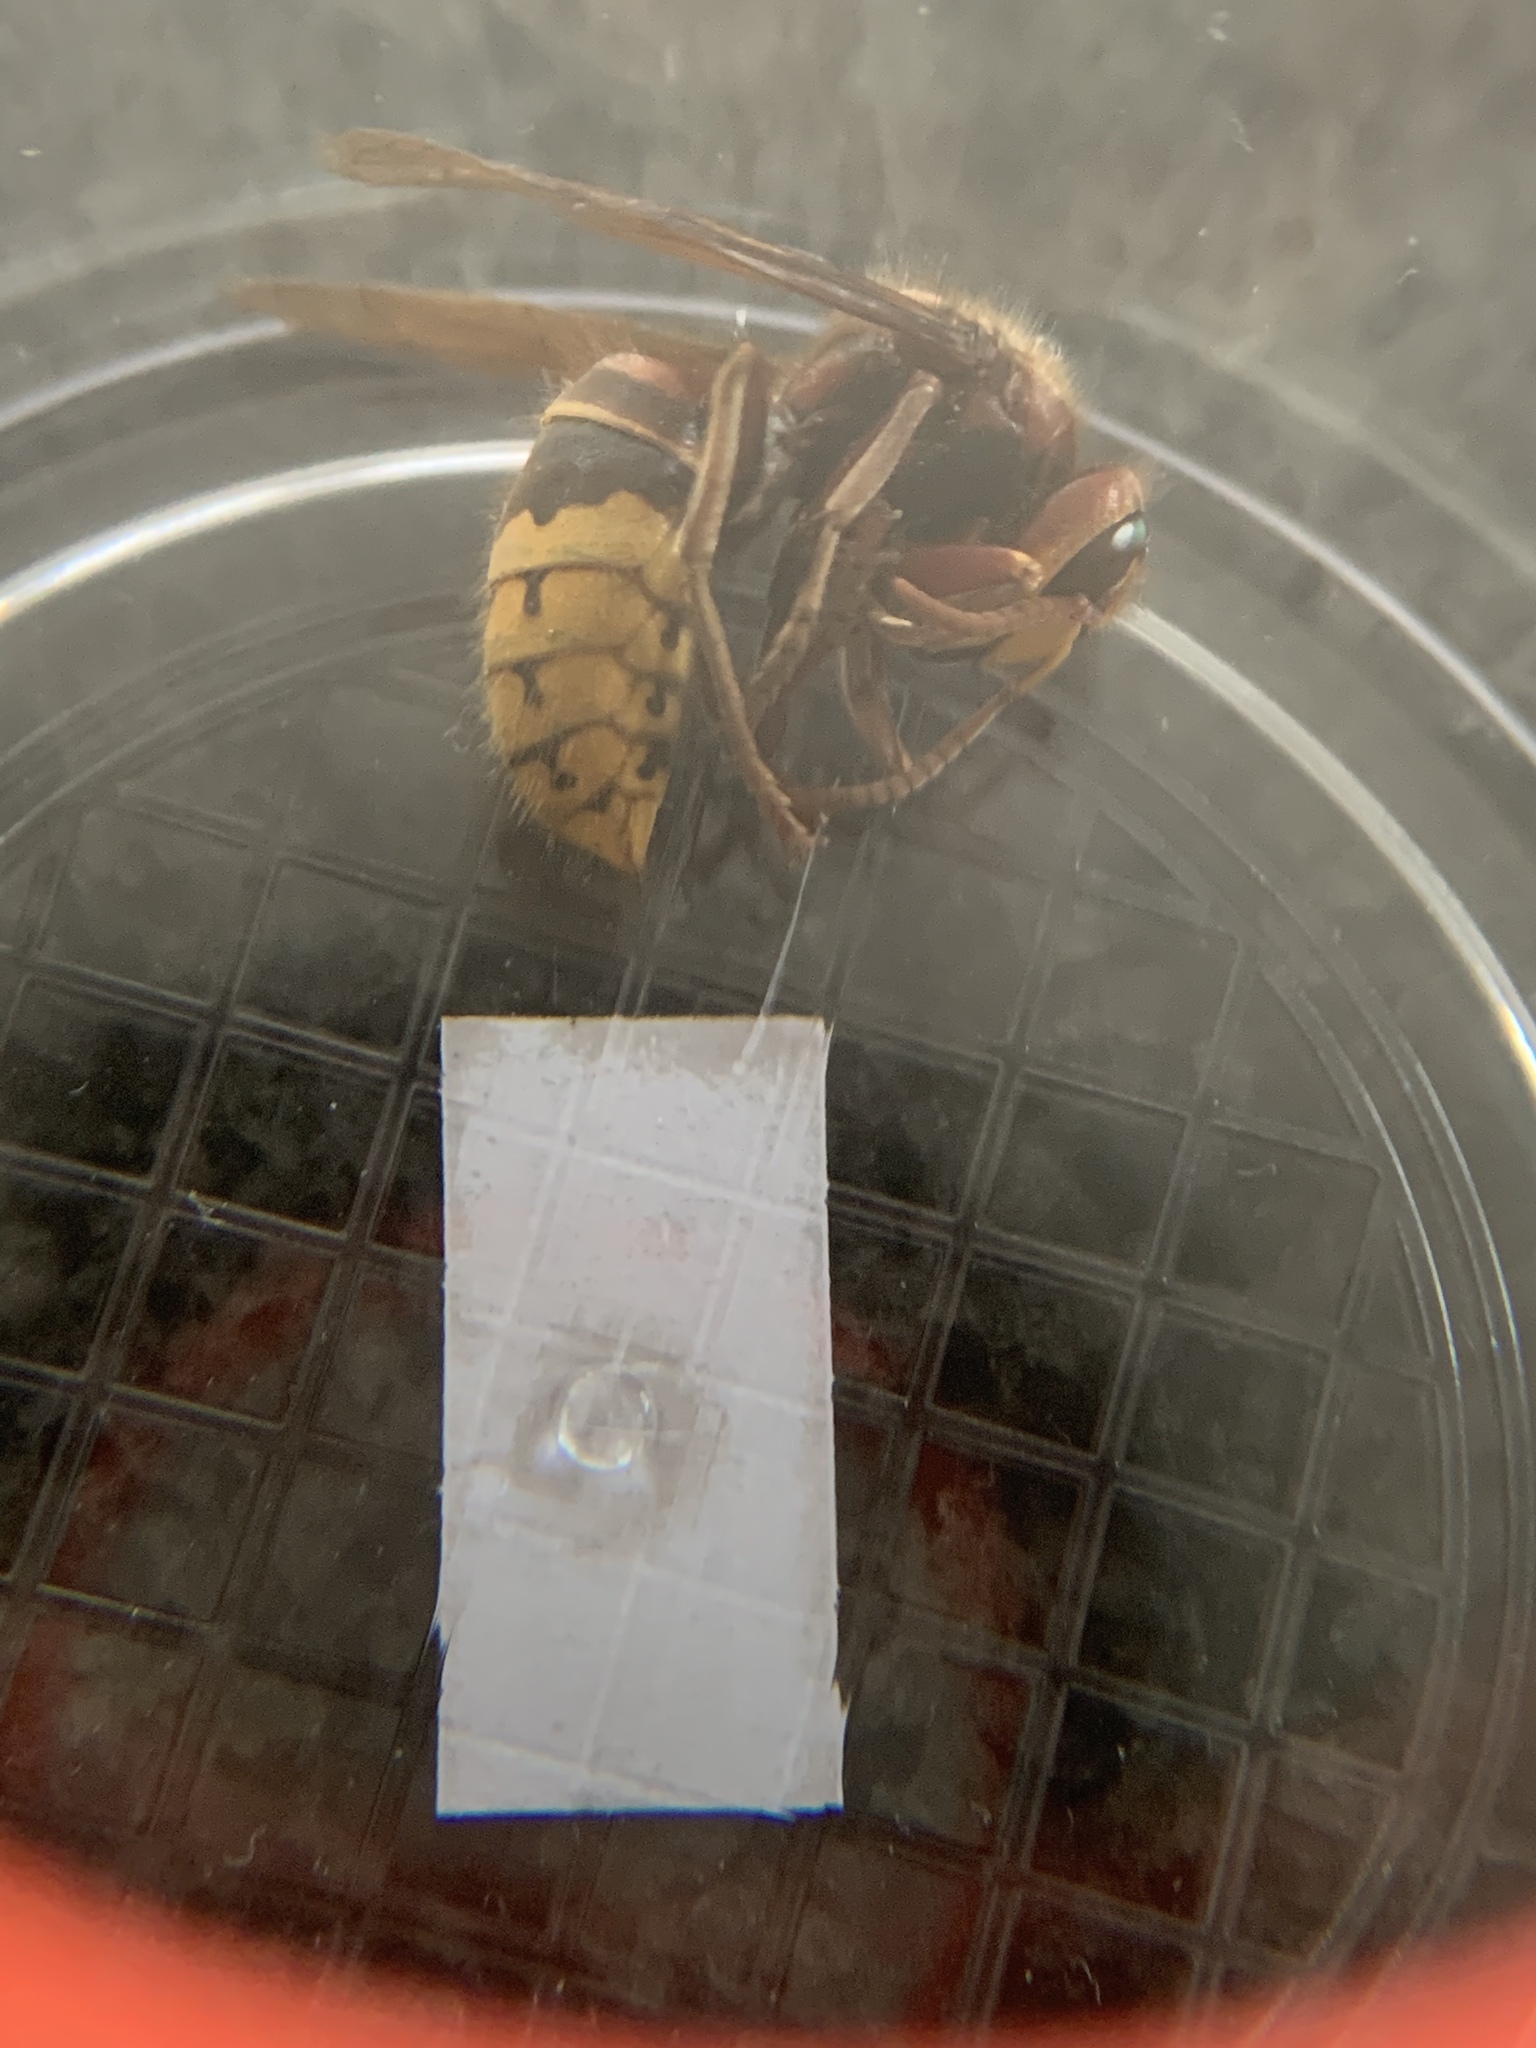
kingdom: Animalia
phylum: Arthropoda
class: Insecta
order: Hymenoptera
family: Vespidae
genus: Vespa
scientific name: Vespa crabro
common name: Hornet
